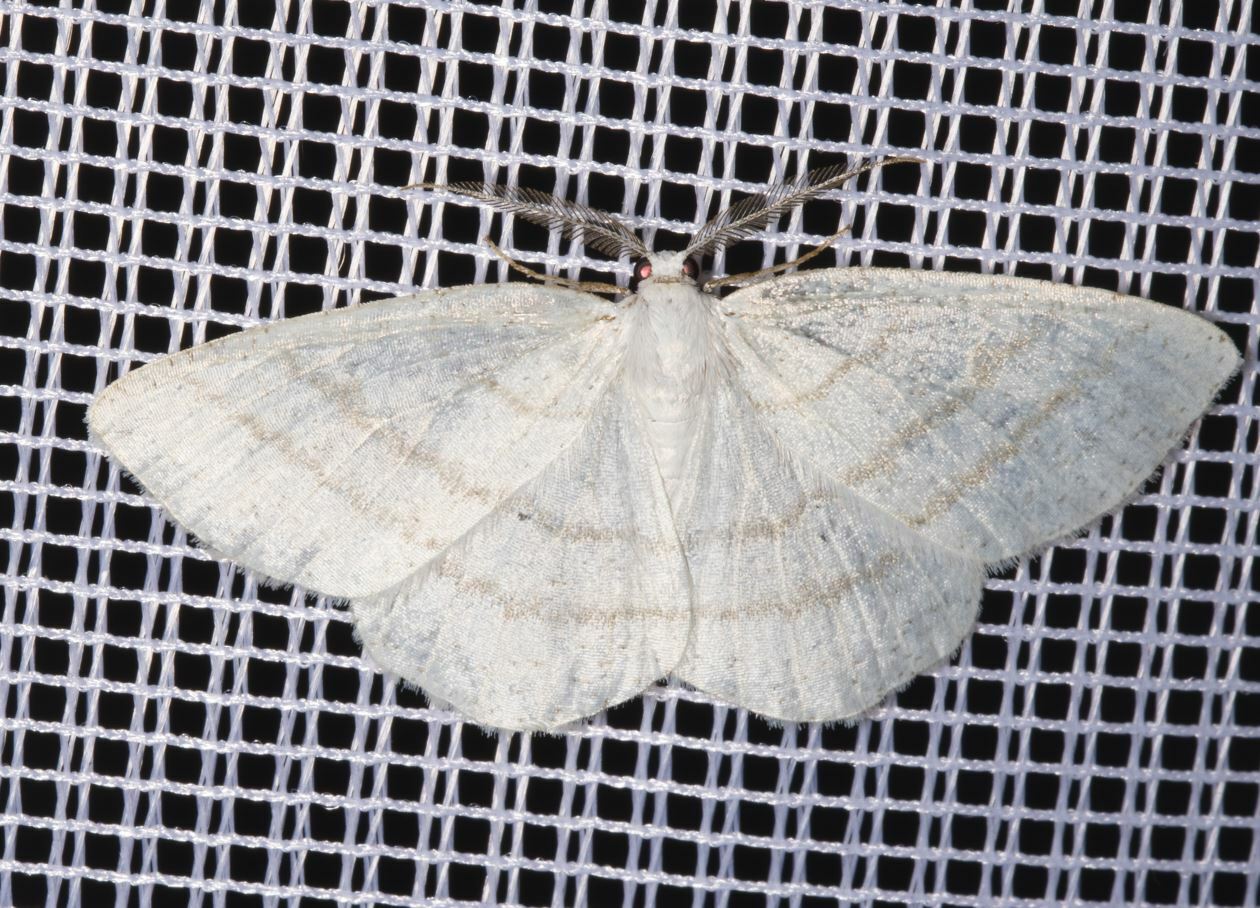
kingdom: Animalia
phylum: Arthropoda
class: Insecta
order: Lepidoptera
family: Geometridae
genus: Cabera
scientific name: Cabera pusaria
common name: Common white wave
